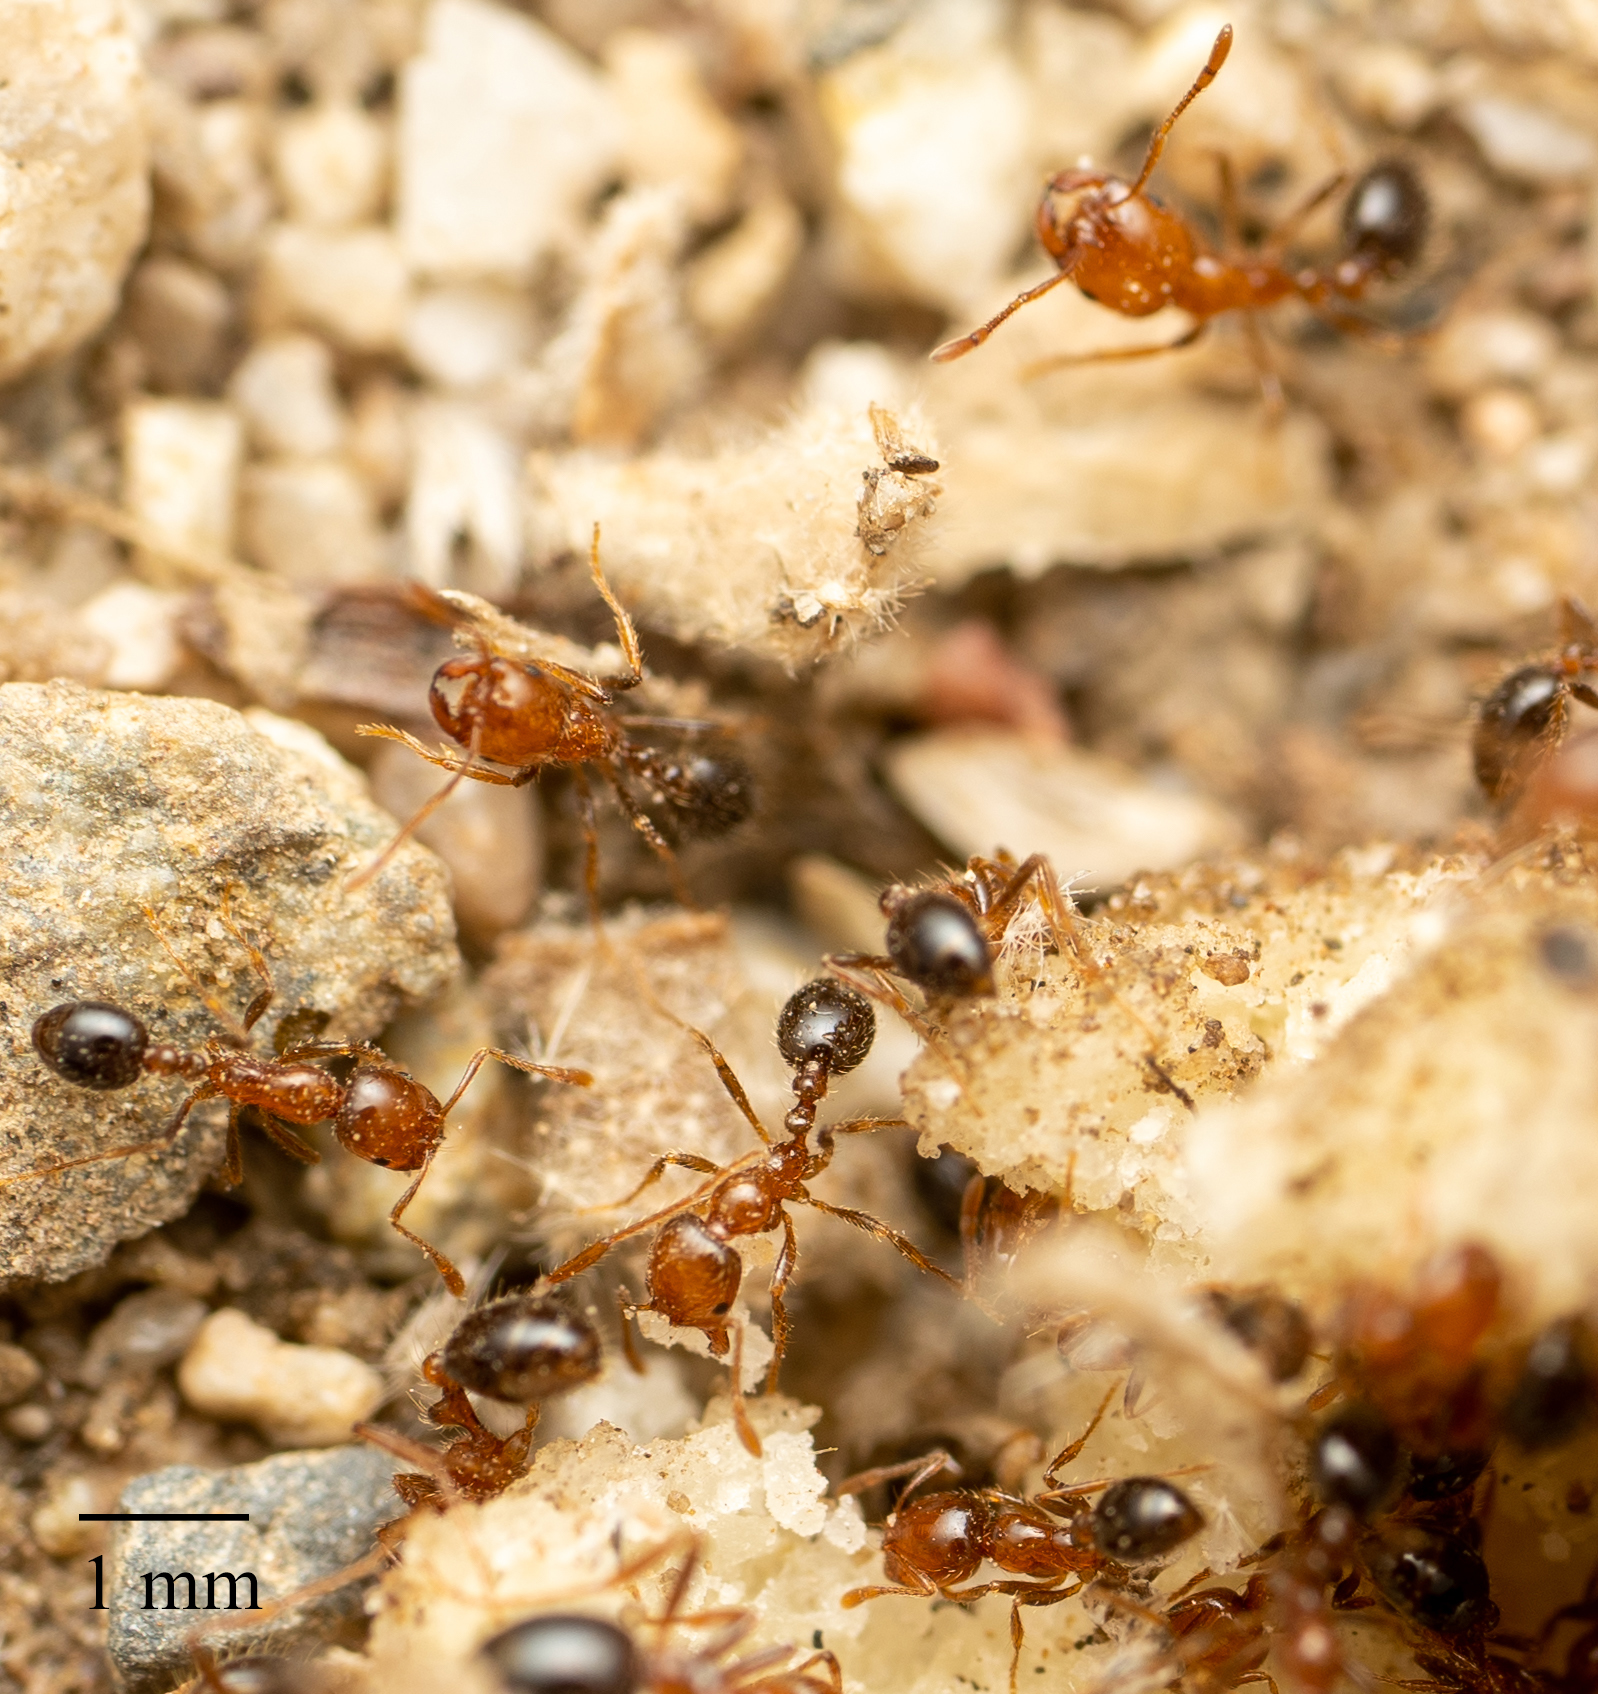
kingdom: Animalia
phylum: Arthropoda
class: Insecta
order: Hymenoptera
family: Formicidae
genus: Solenopsis
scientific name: Solenopsis xyloni
